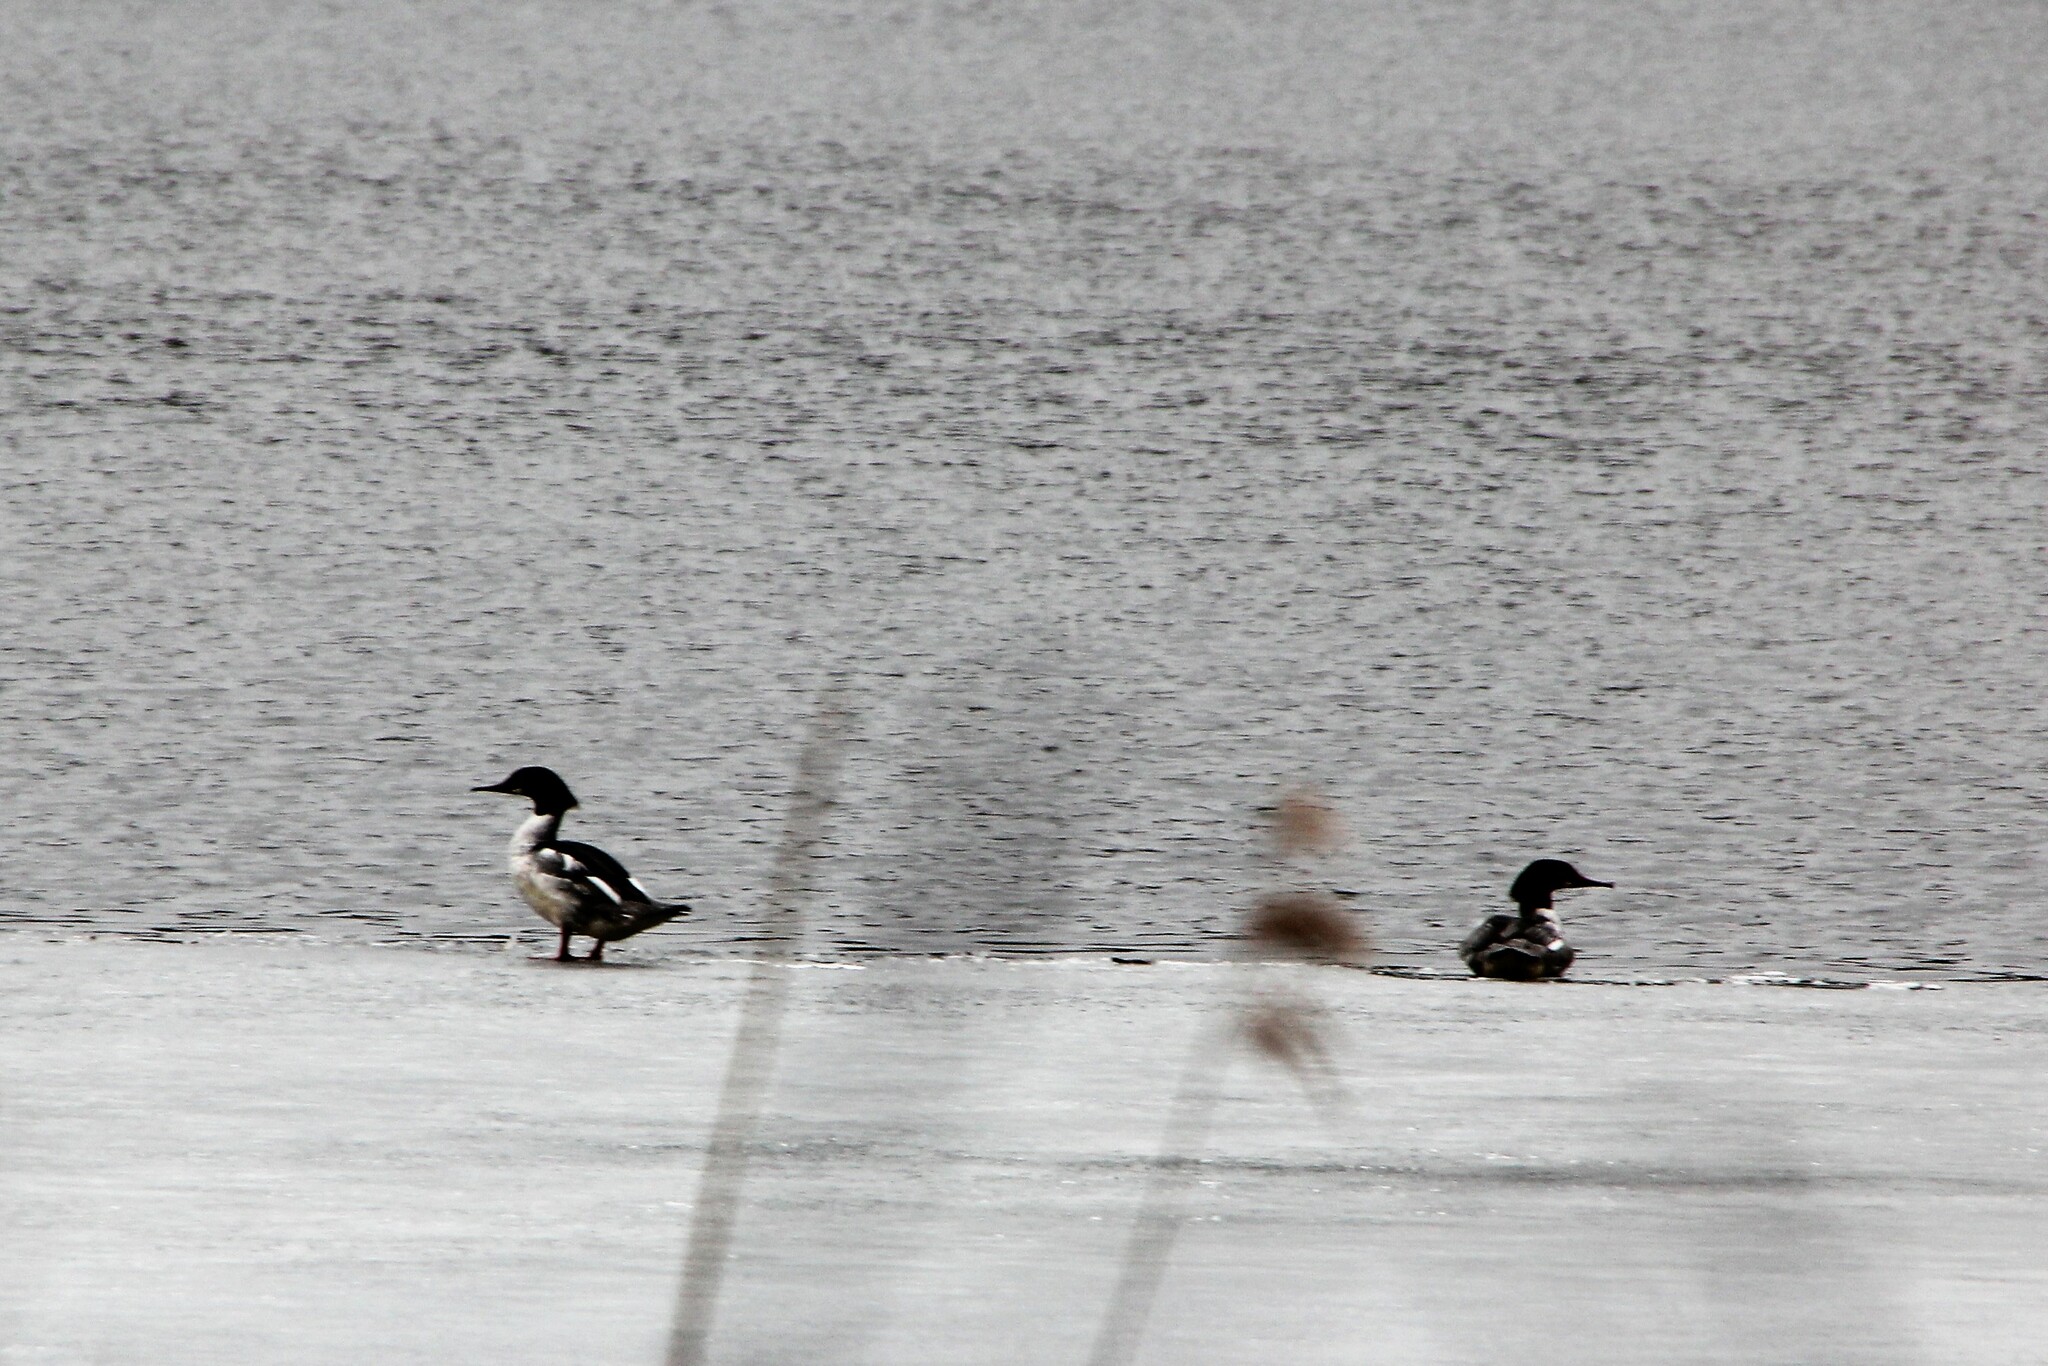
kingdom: Animalia
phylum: Chordata
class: Aves
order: Anseriformes
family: Anatidae
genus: Mergus
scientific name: Mergus merganser
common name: Common merganser
